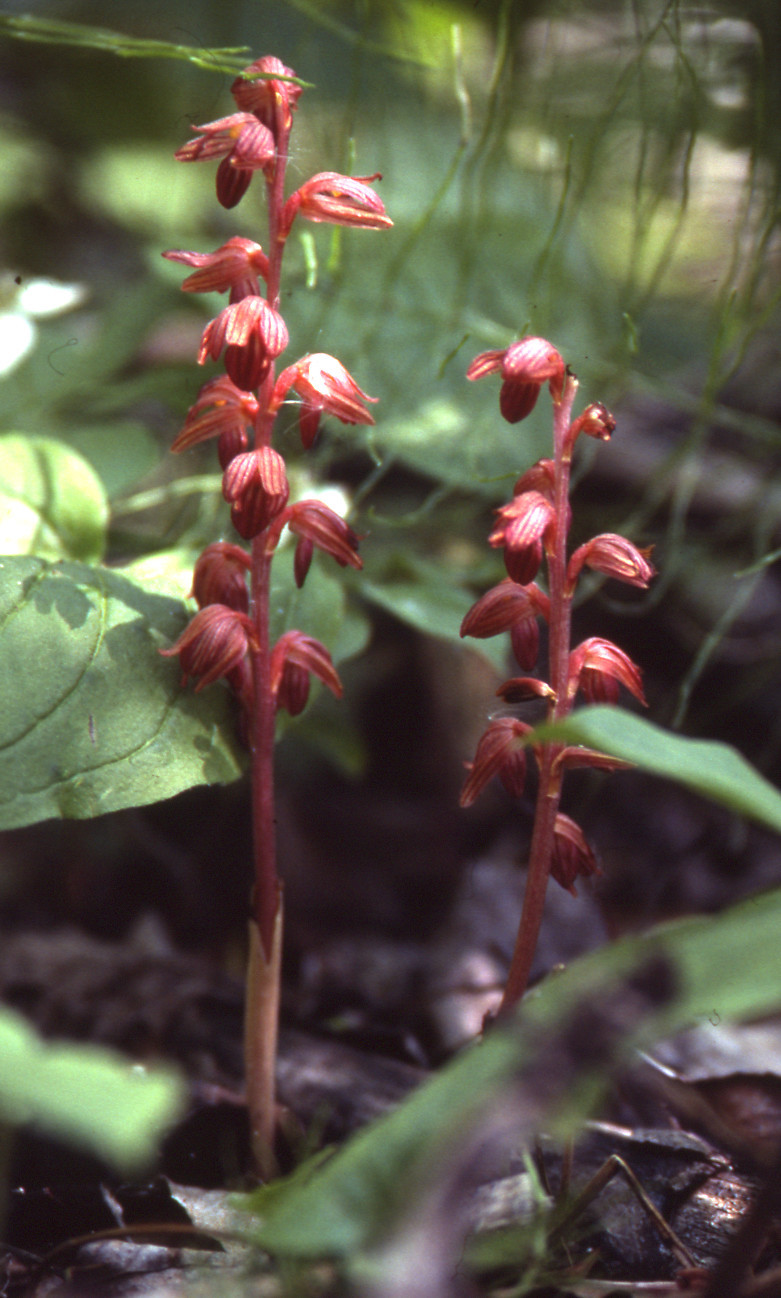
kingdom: Plantae
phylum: Tracheophyta
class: Liliopsida
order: Asparagales
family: Orchidaceae
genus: Corallorhiza
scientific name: Corallorhiza striata
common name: Hooded coralroot
